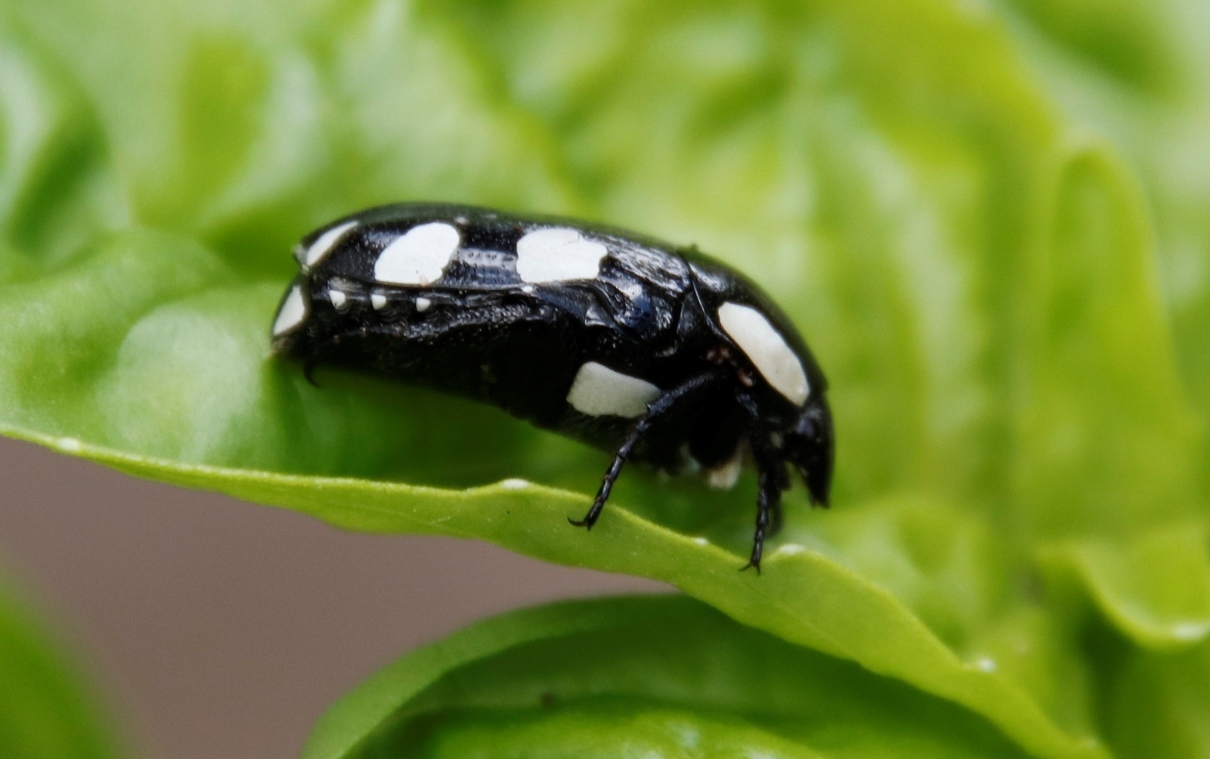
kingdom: Animalia
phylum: Arthropoda
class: Insecta
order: Coleoptera
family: Scarabaeidae
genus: Mausoleopsis
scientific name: Mausoleopsis amabilis
